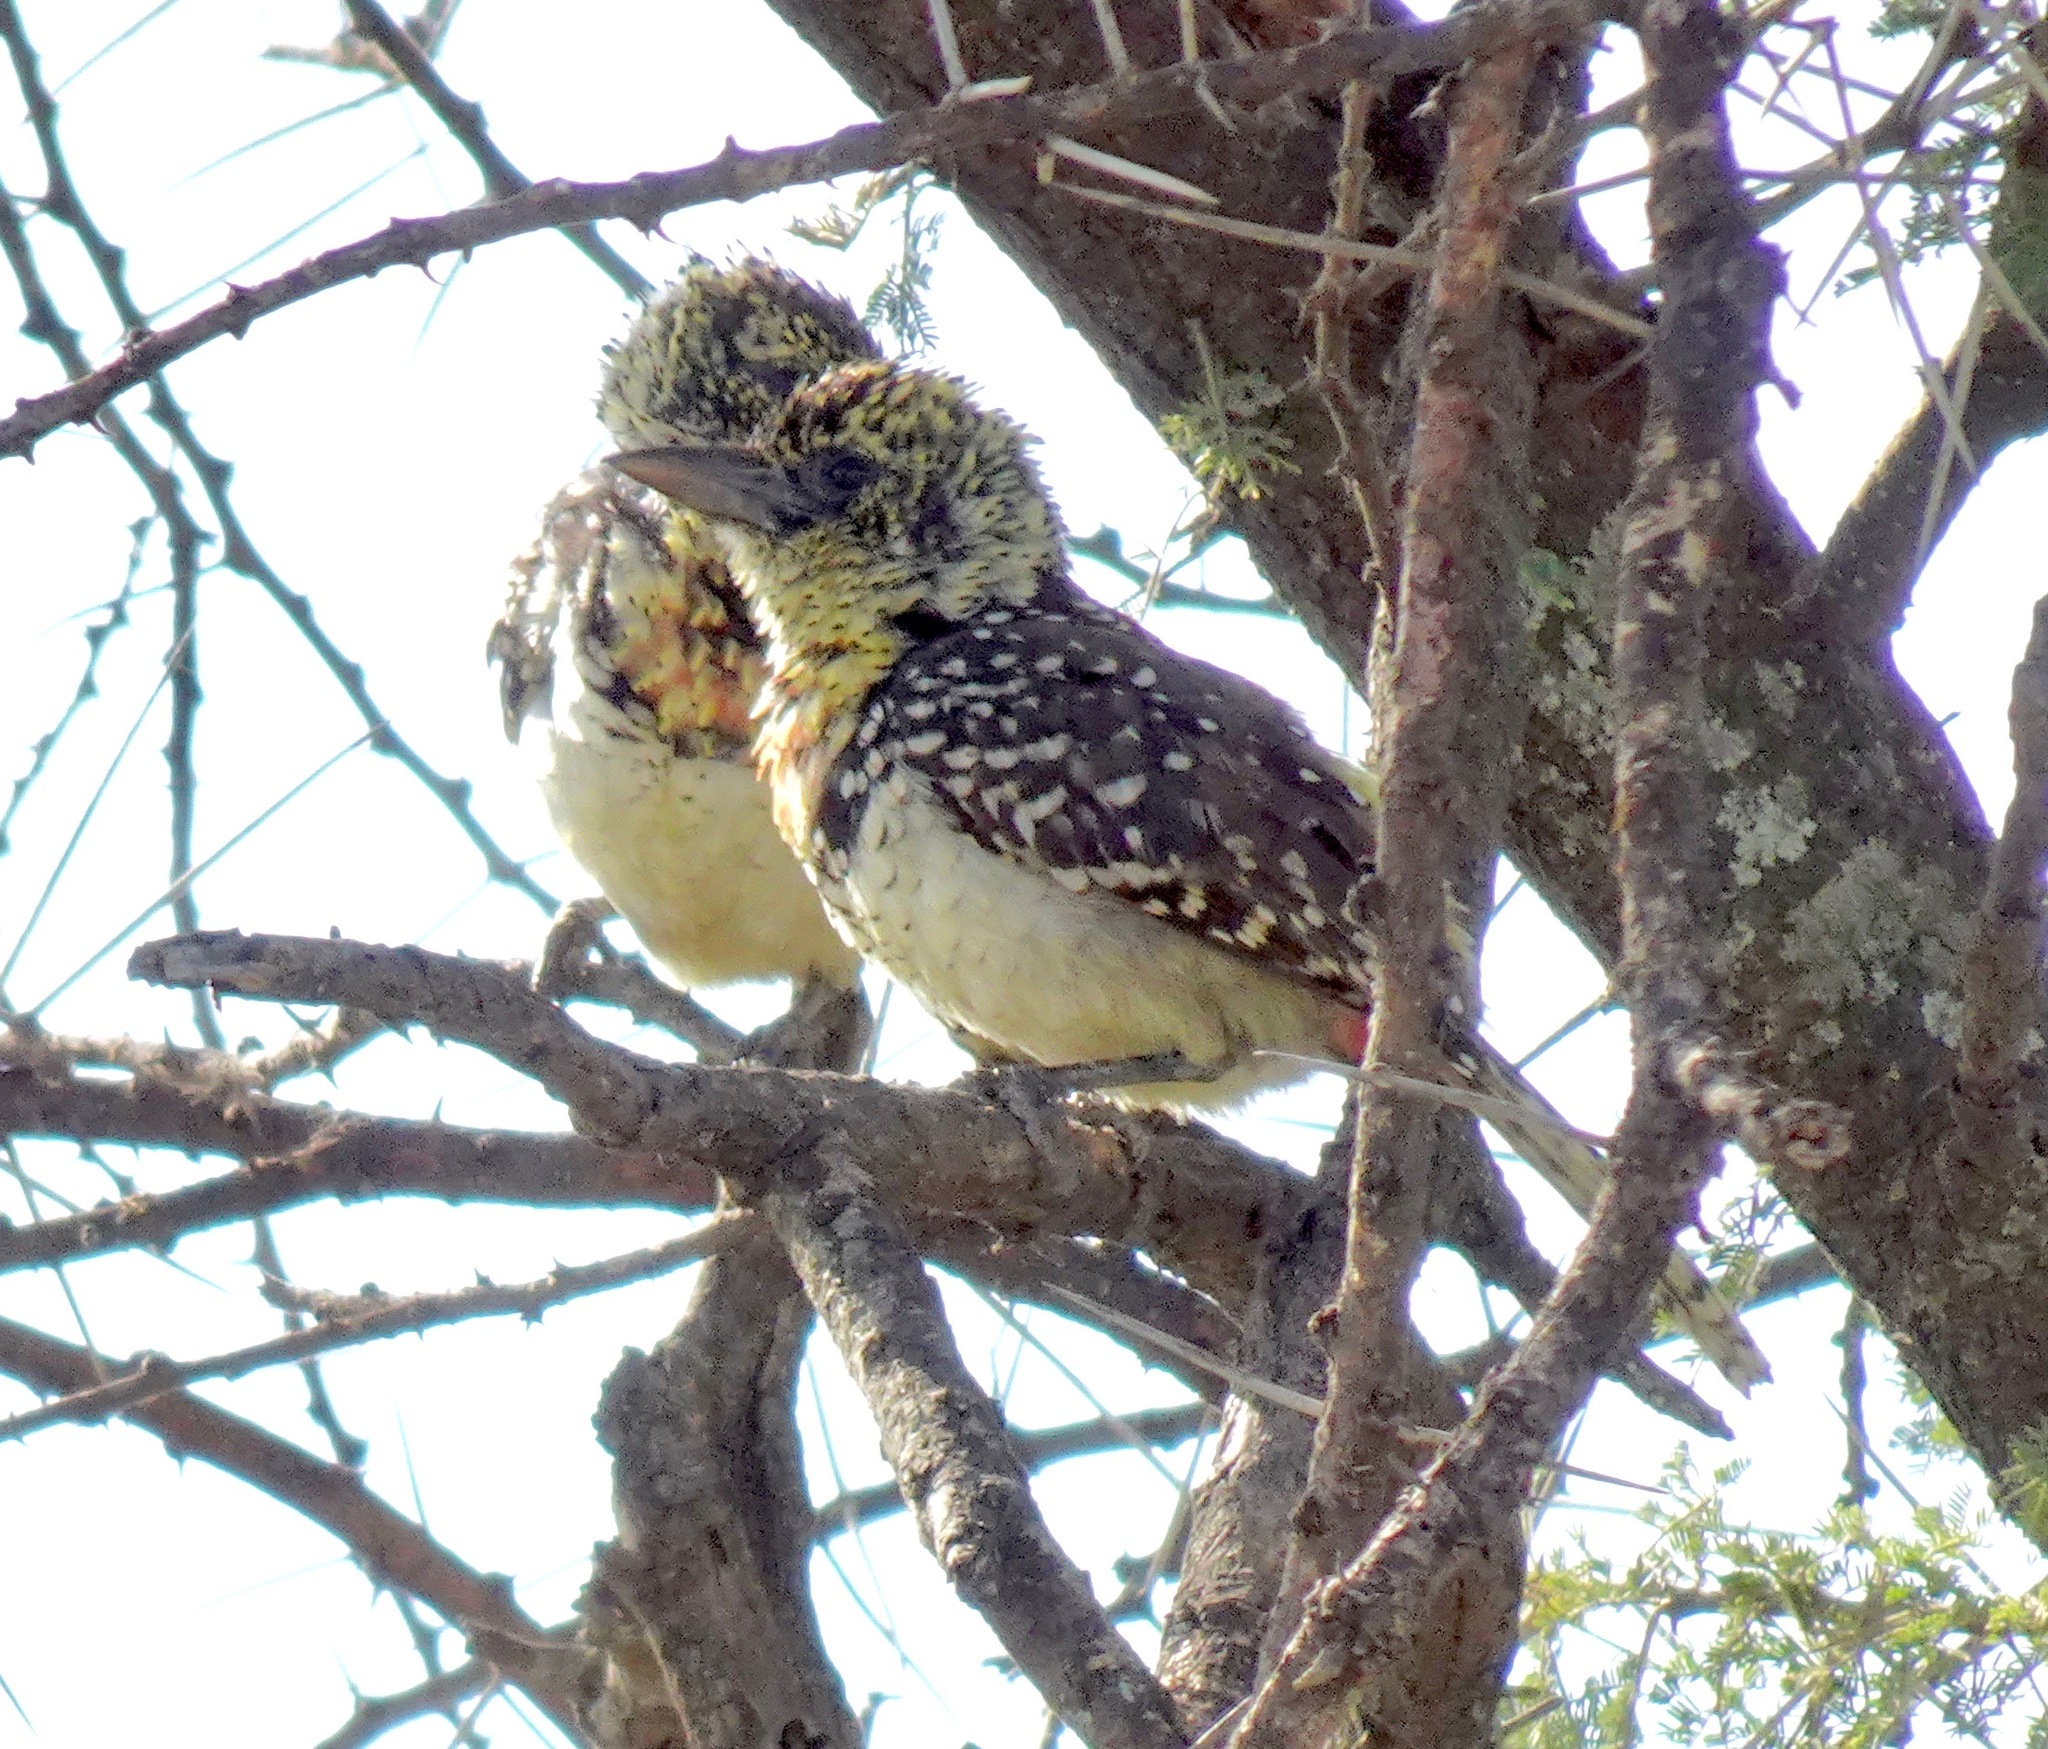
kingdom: Animalia
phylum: Chordata
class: Aves
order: Piciformes
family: Lybiidae
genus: Trachyphonus
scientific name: Trachyphonus darnaudii
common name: D'arnaud's barbet
